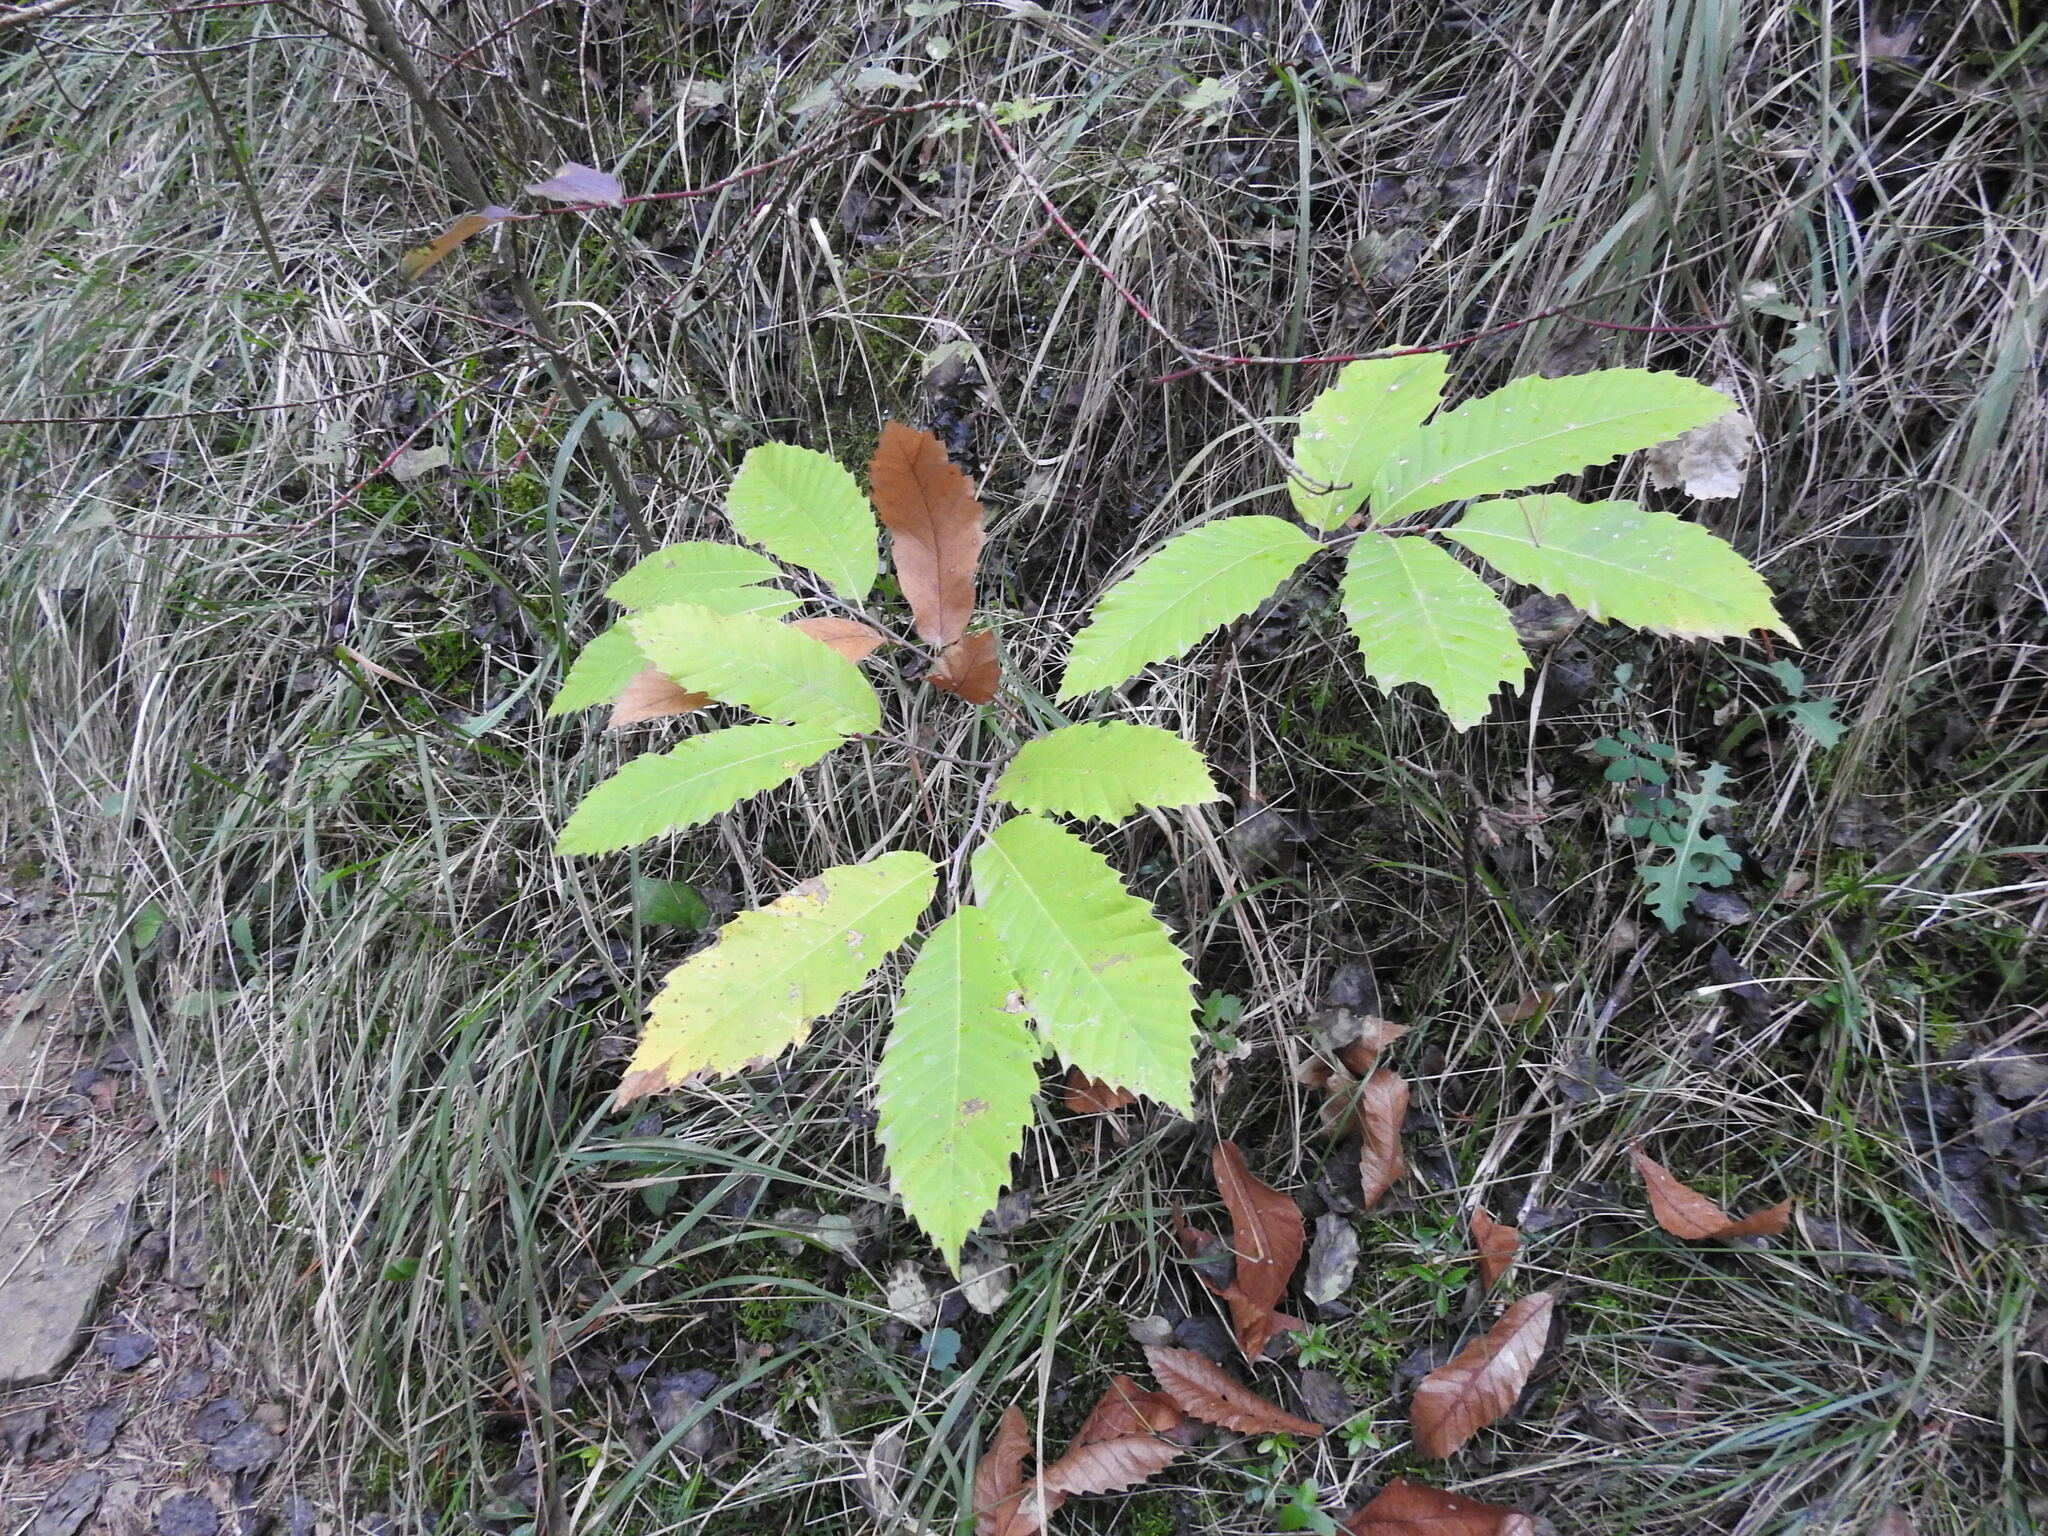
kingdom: Plantae
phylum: Tracheophyta
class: Magnoliopsida
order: Fagales
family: Fagaceae
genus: Castanea
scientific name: Castanea sativa
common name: Sweet chestnut
